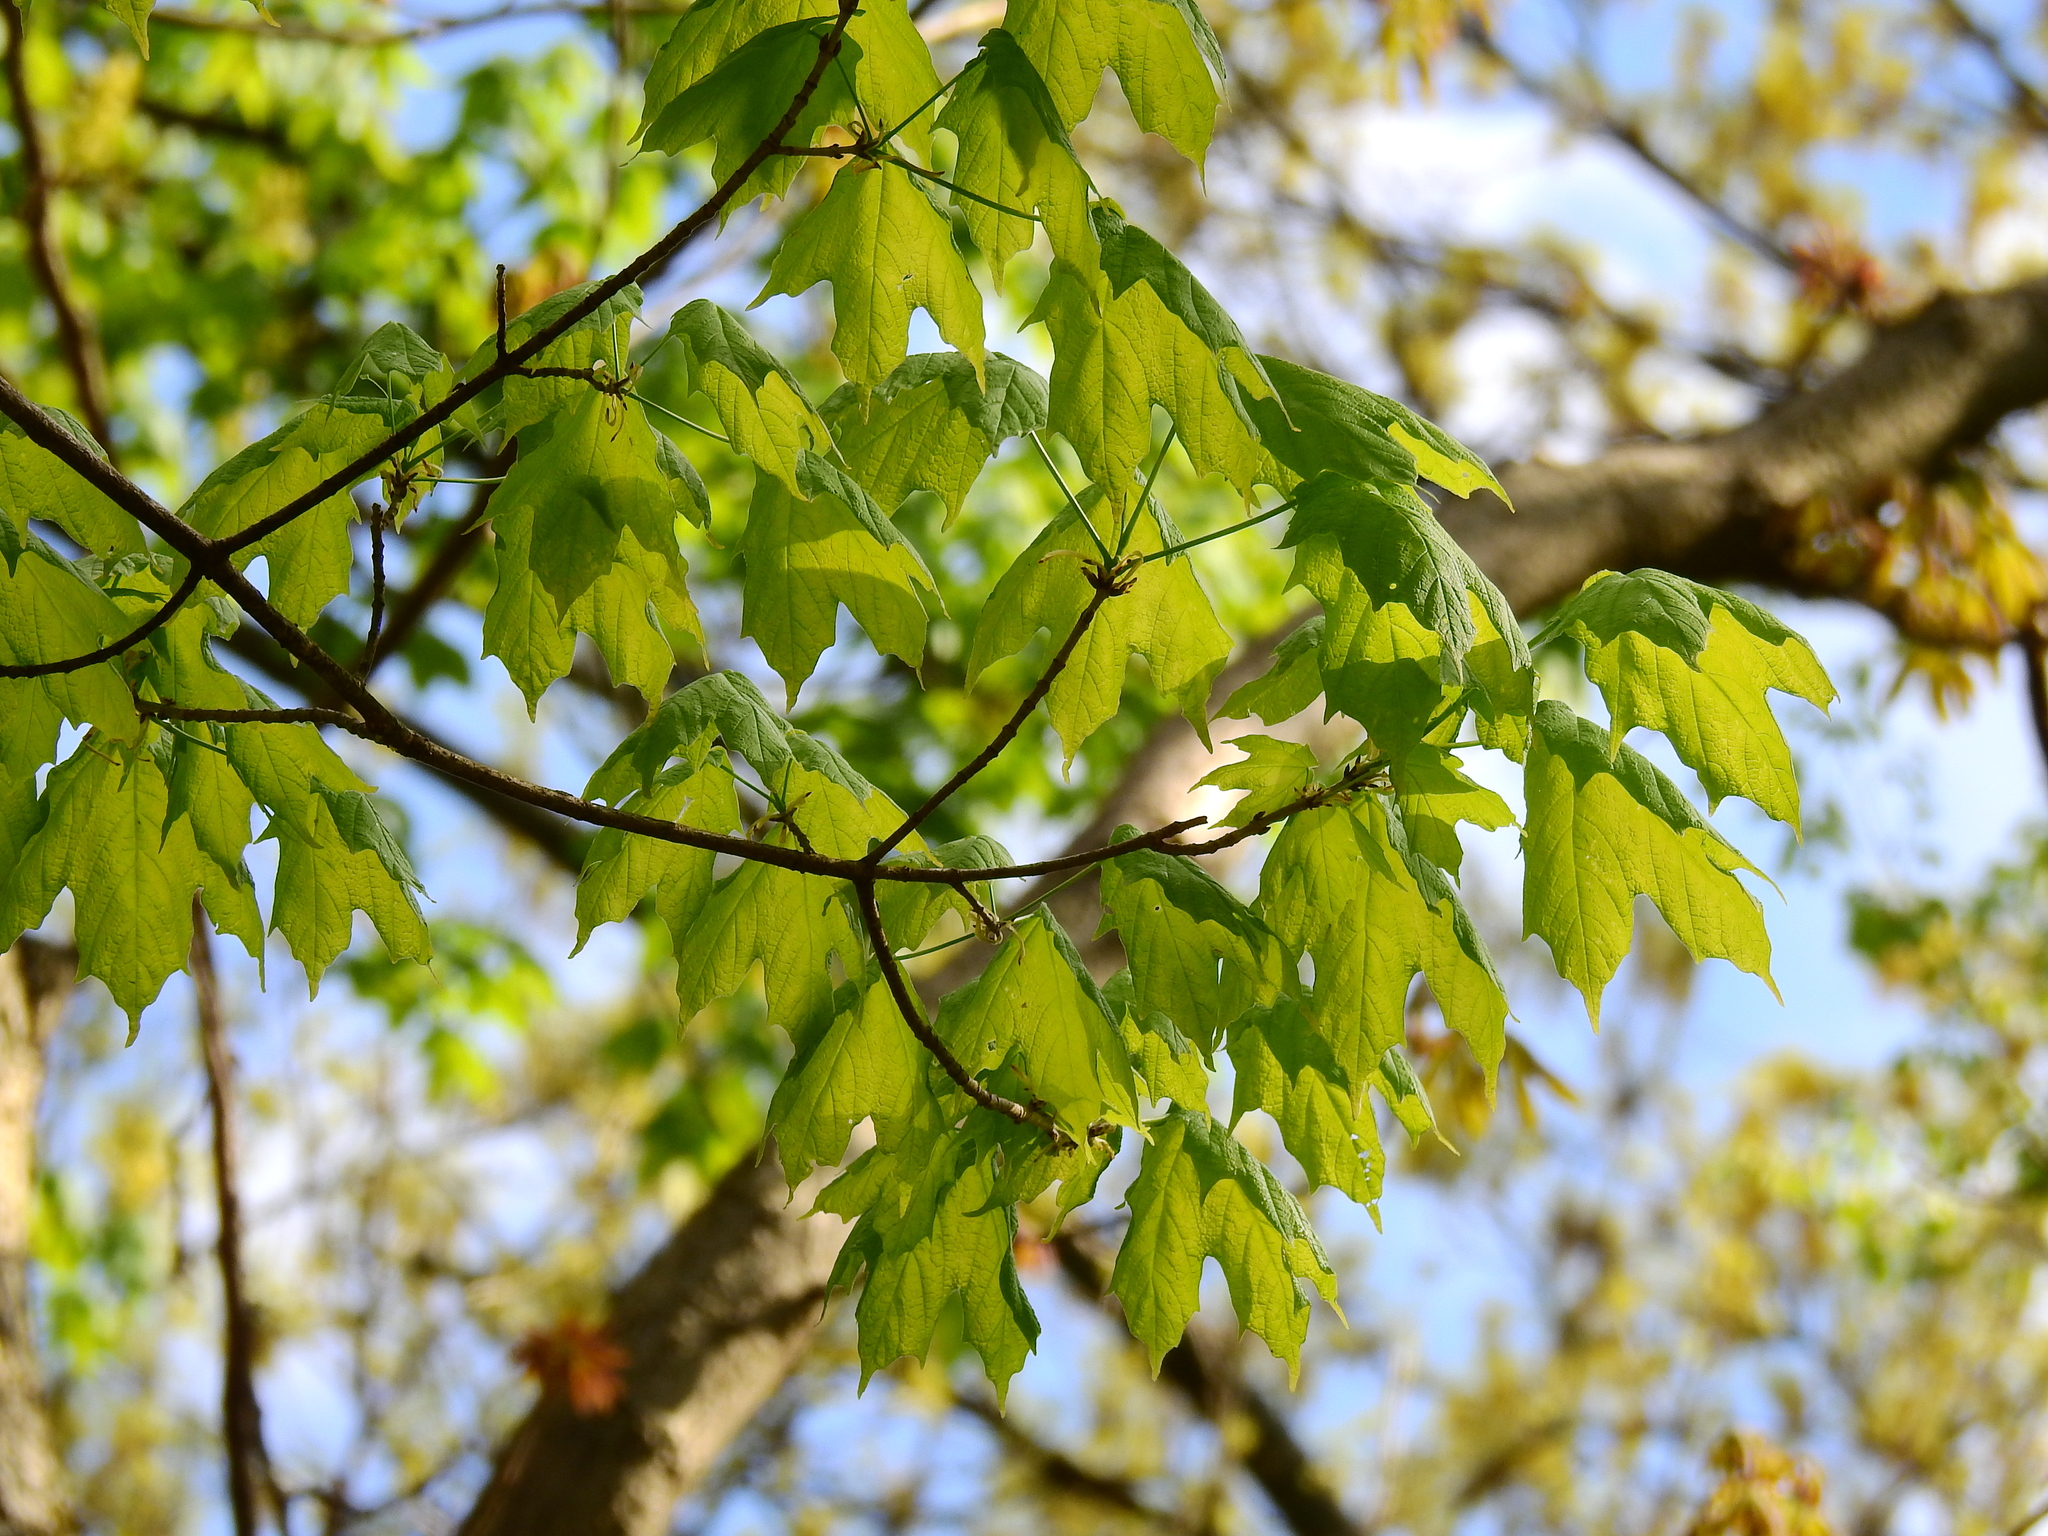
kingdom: Plantae
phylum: Tracheophyta
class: Magnoliopsida
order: Sapindales
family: Sapindaceae
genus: Acer
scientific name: Acer saccharum
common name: Sugar maple
